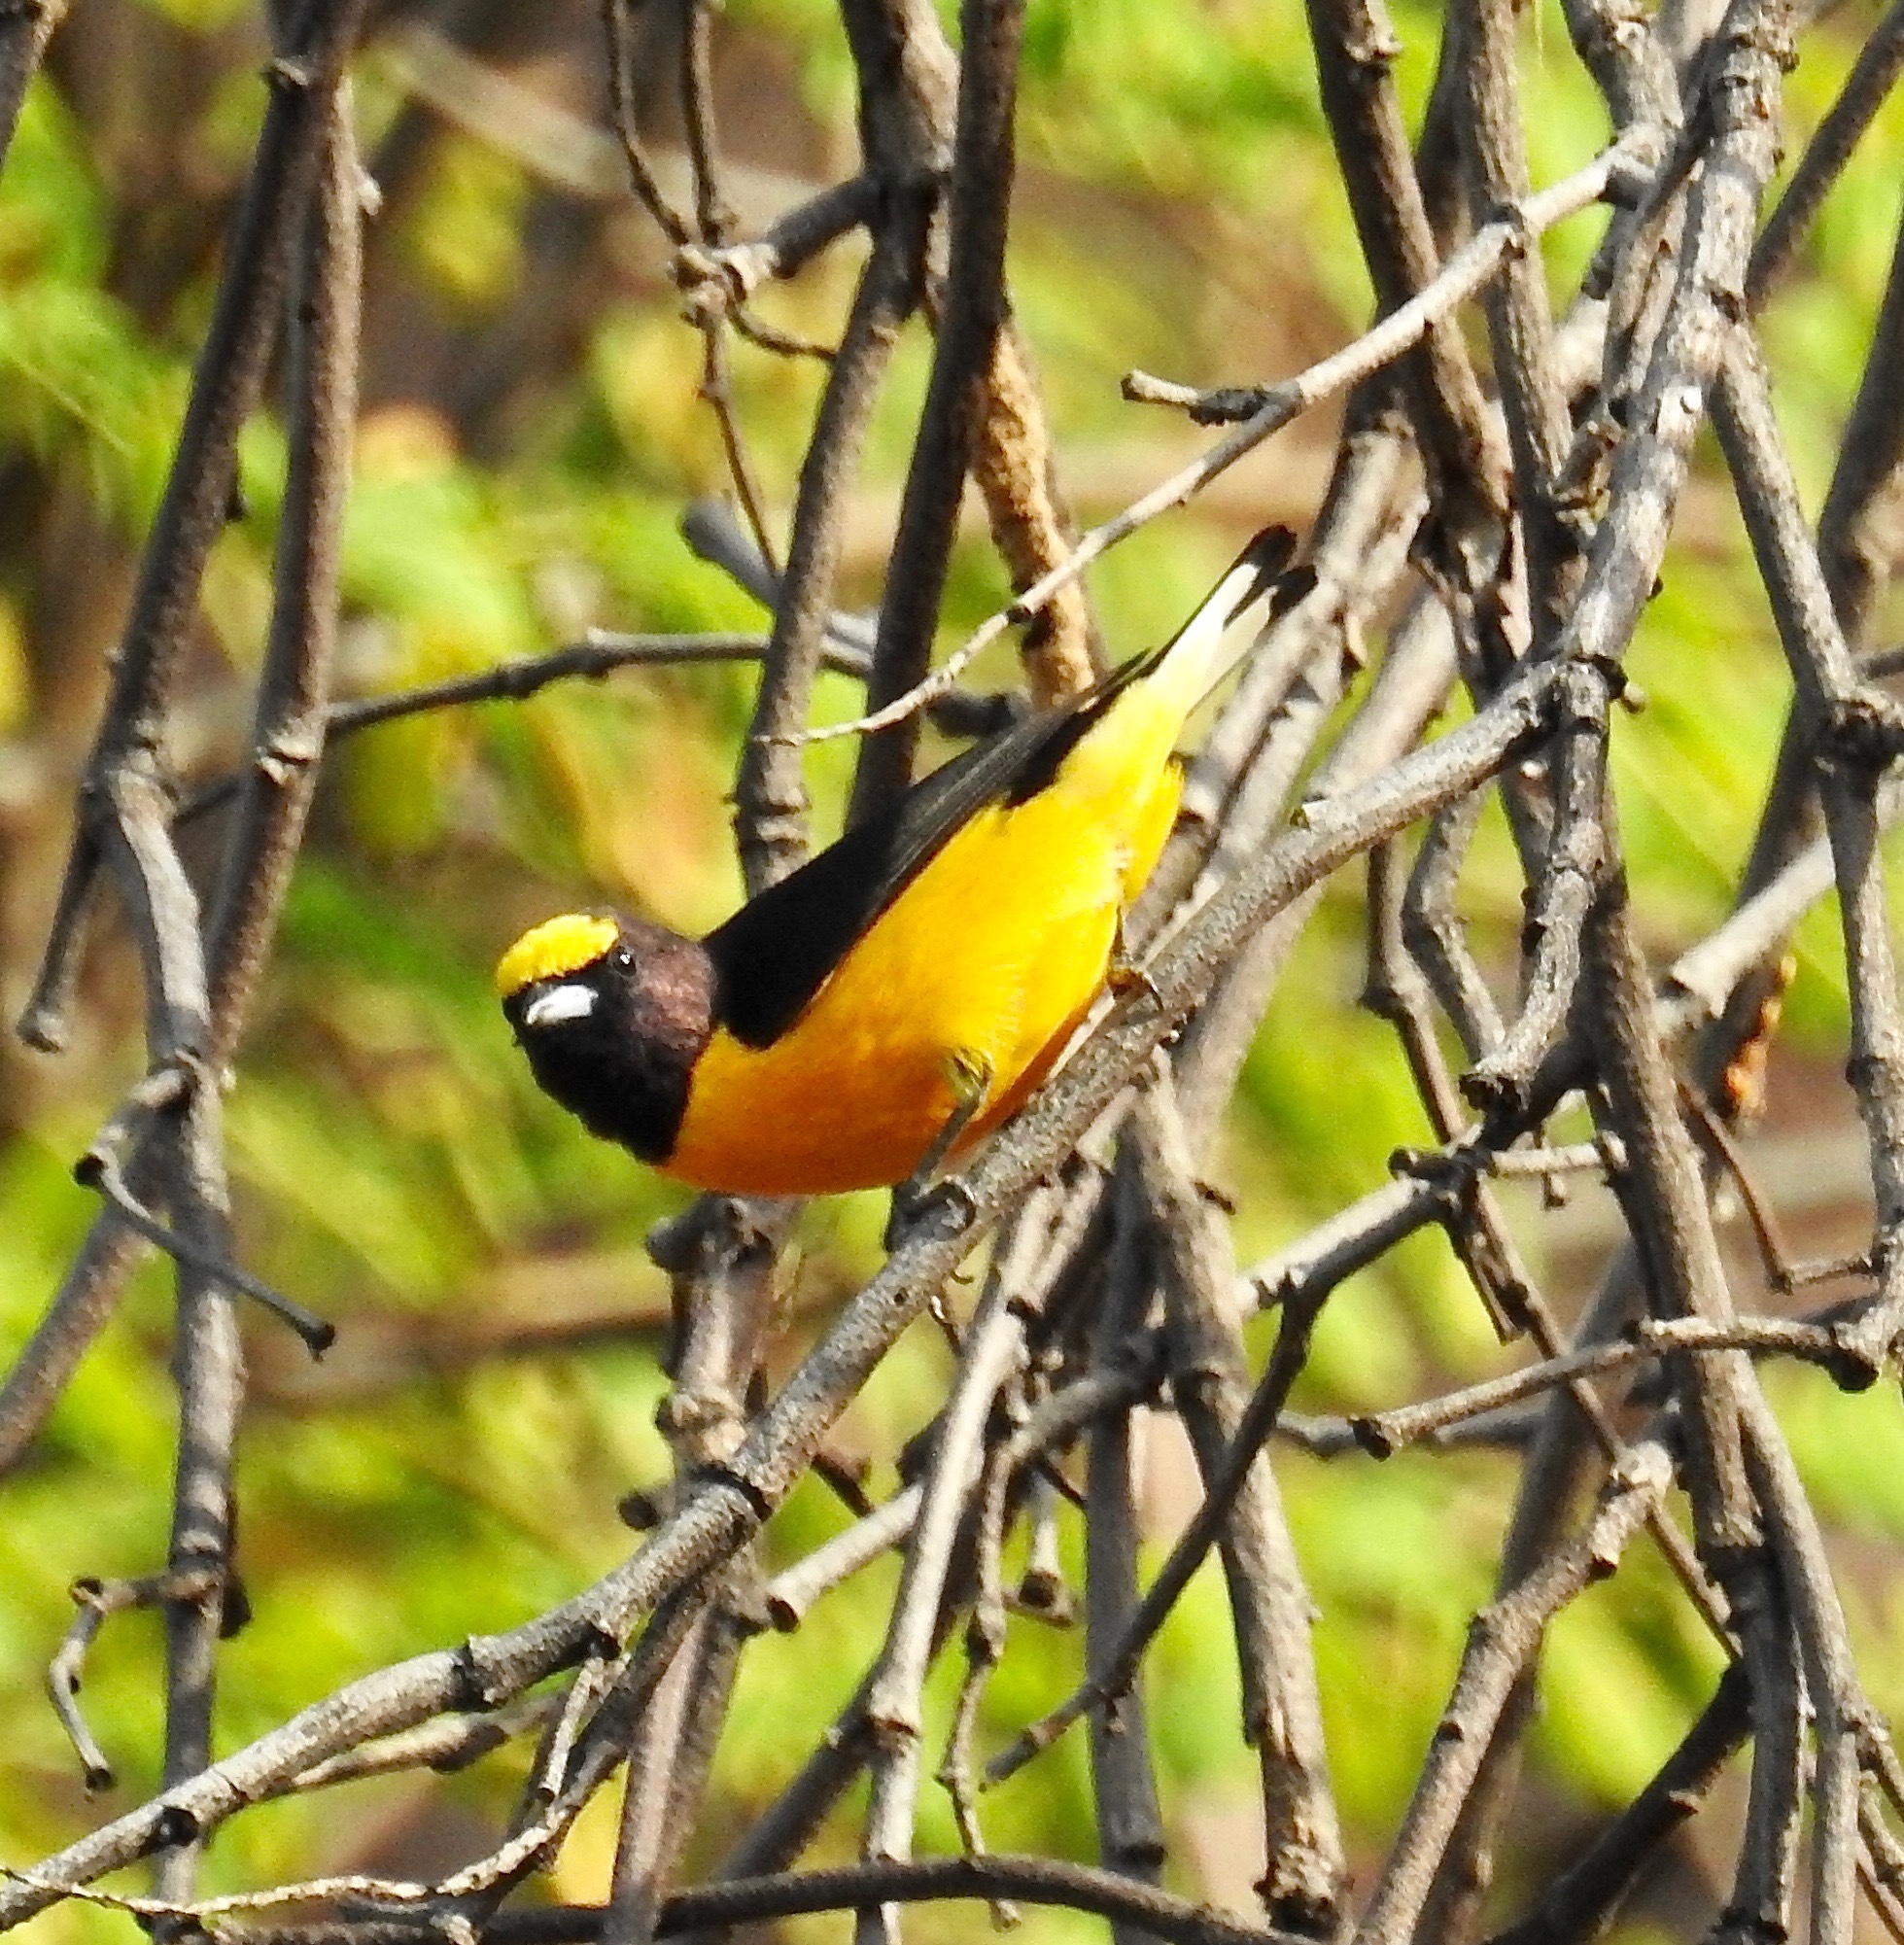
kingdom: Animalia
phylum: Chordata
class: Aves
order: Passeriformes
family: Fringillidae
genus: Euphonia
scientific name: Euphonia chlorotica
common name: Purple-throated euphonia
